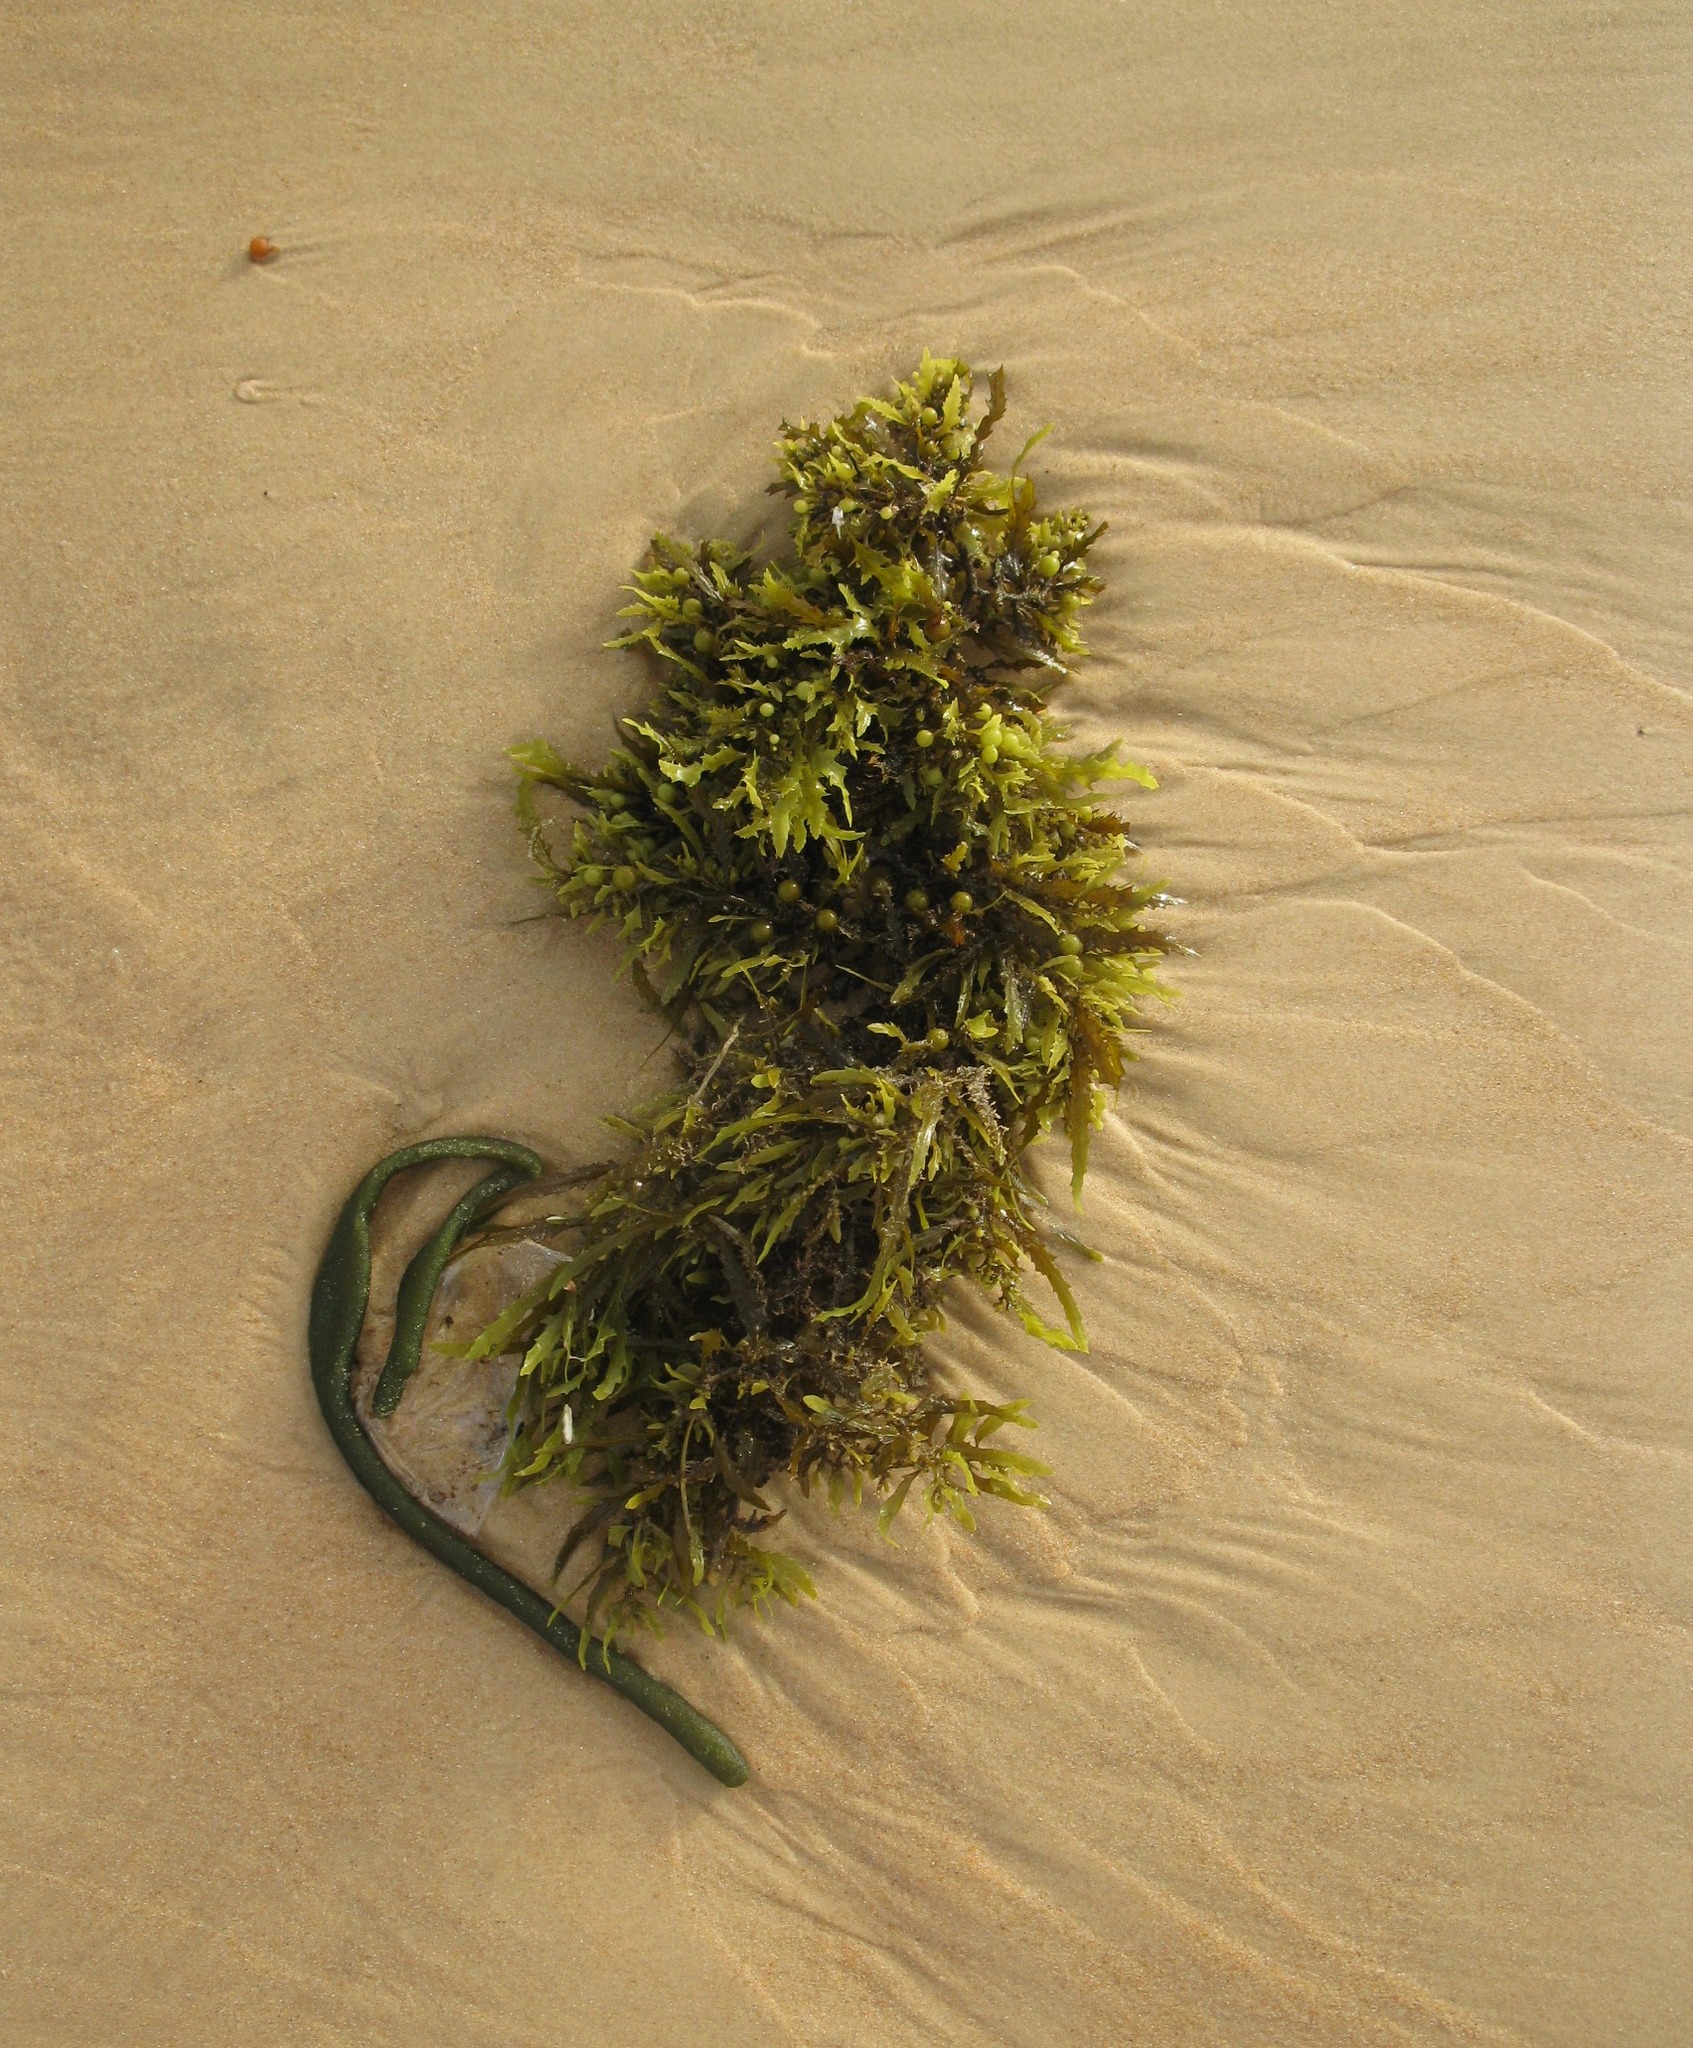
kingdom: Chromista
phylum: Ochrophyta
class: Phaeophyceae
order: Fucales
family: Sargassaceae
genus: Sargassum
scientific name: Sargassum fluitans
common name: Sargassum seaweed
